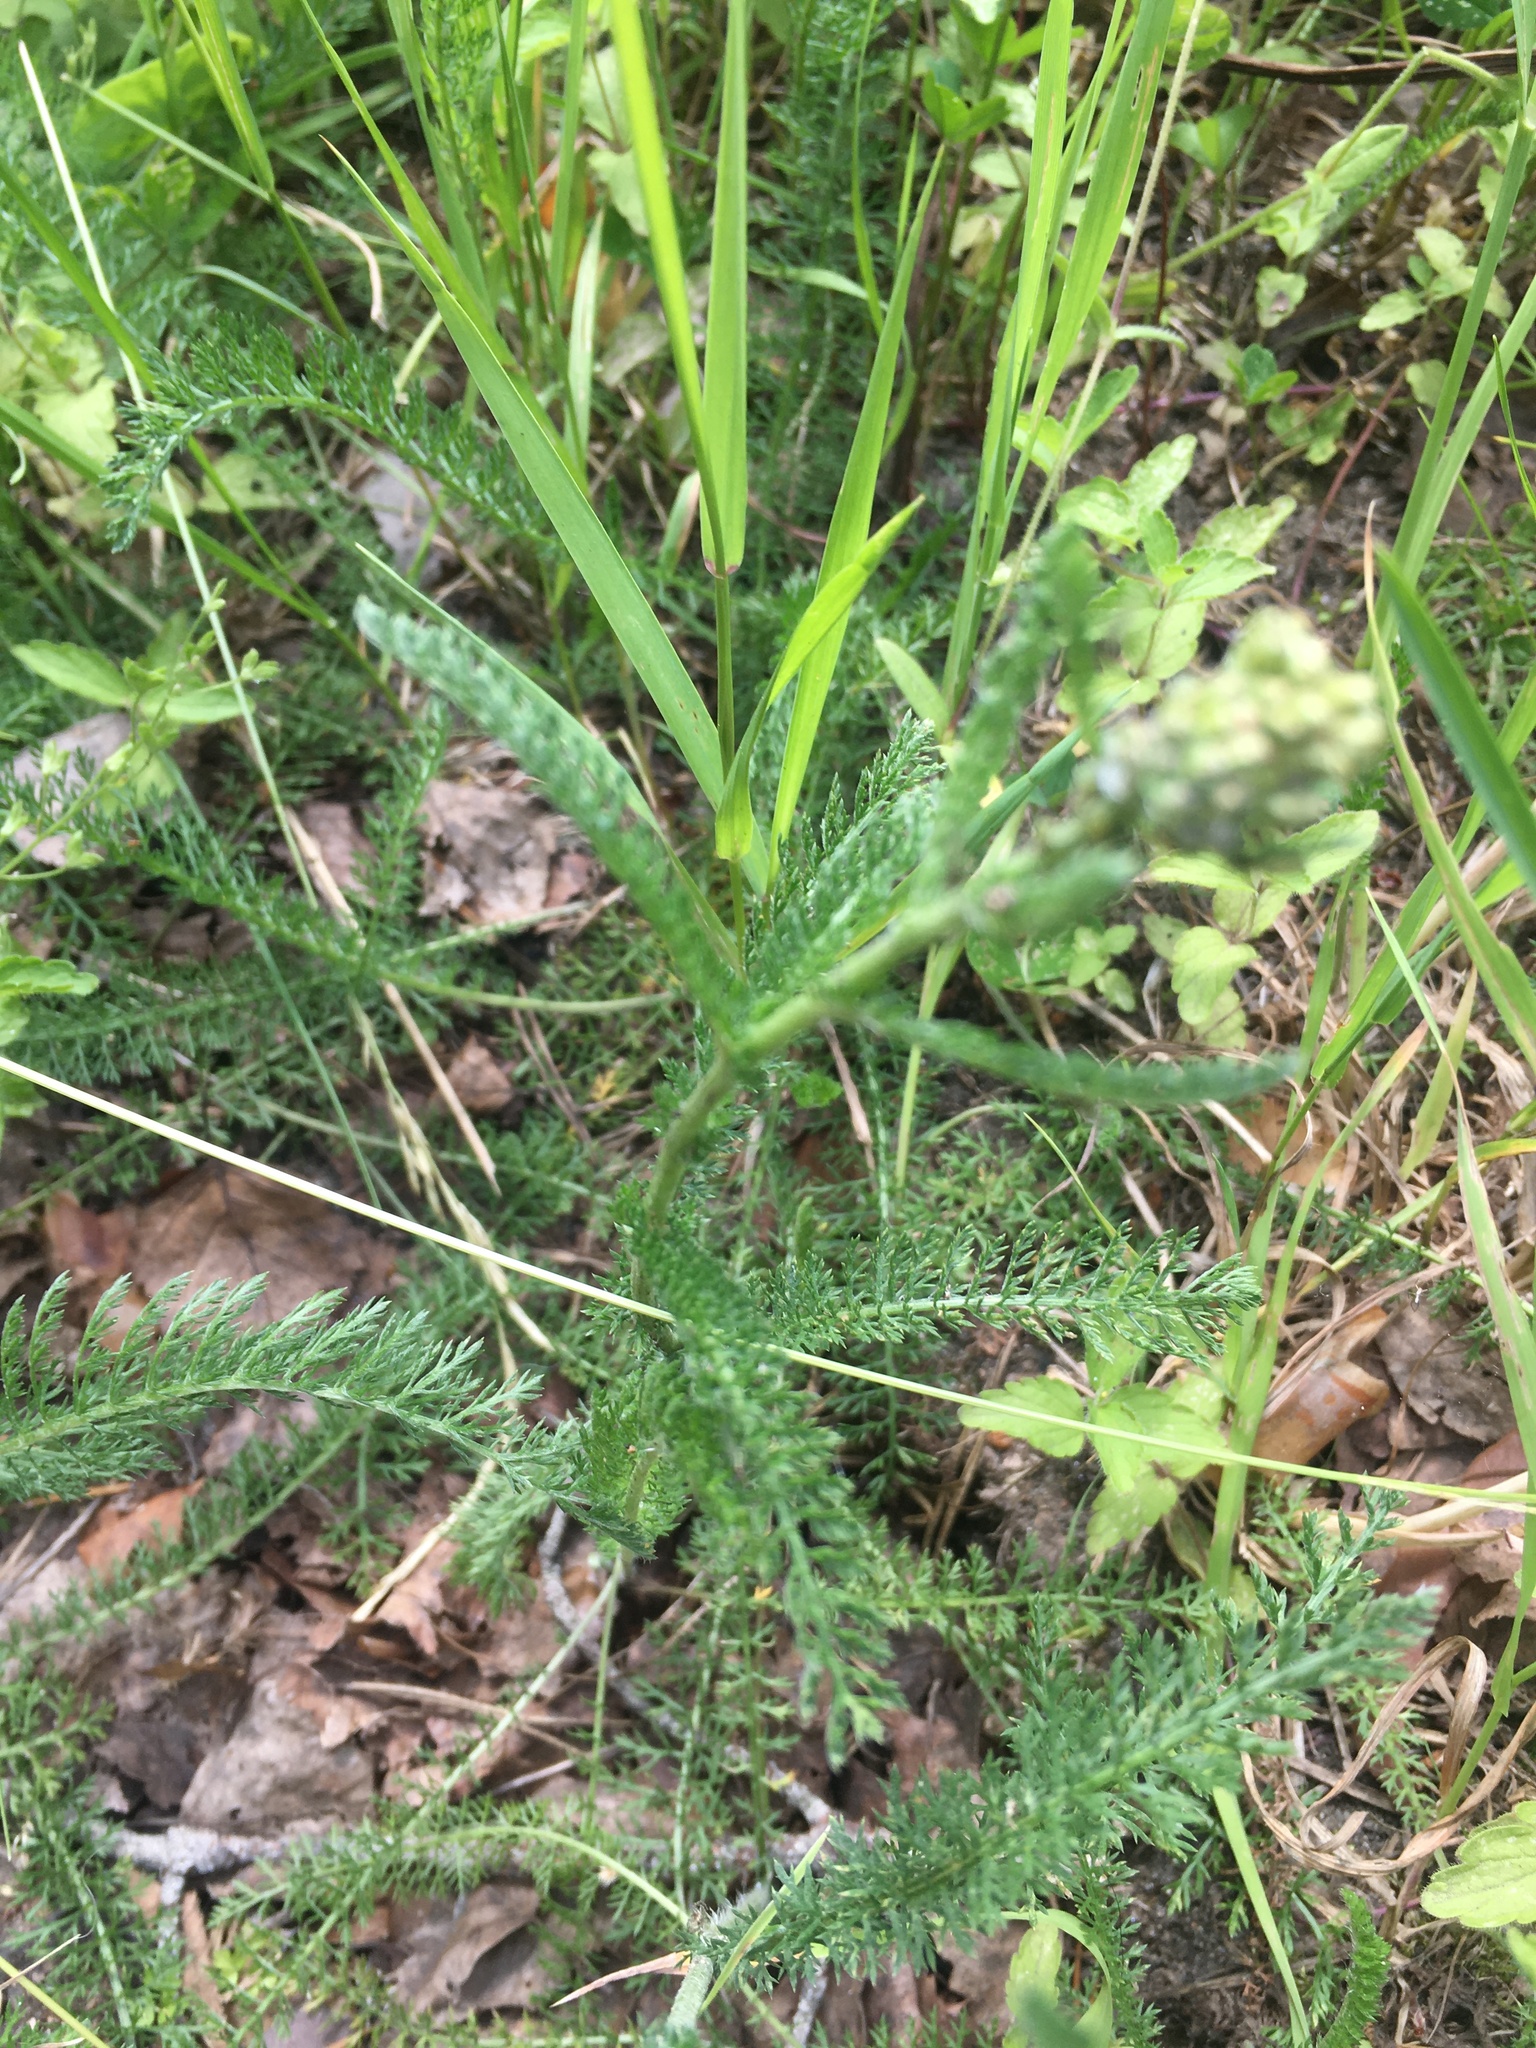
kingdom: Plantae
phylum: Tracheophyta
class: Magnoliopsida
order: Asterales
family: Asteraceae
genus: Achillea
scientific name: Achillea millefolium
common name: Yarrow
